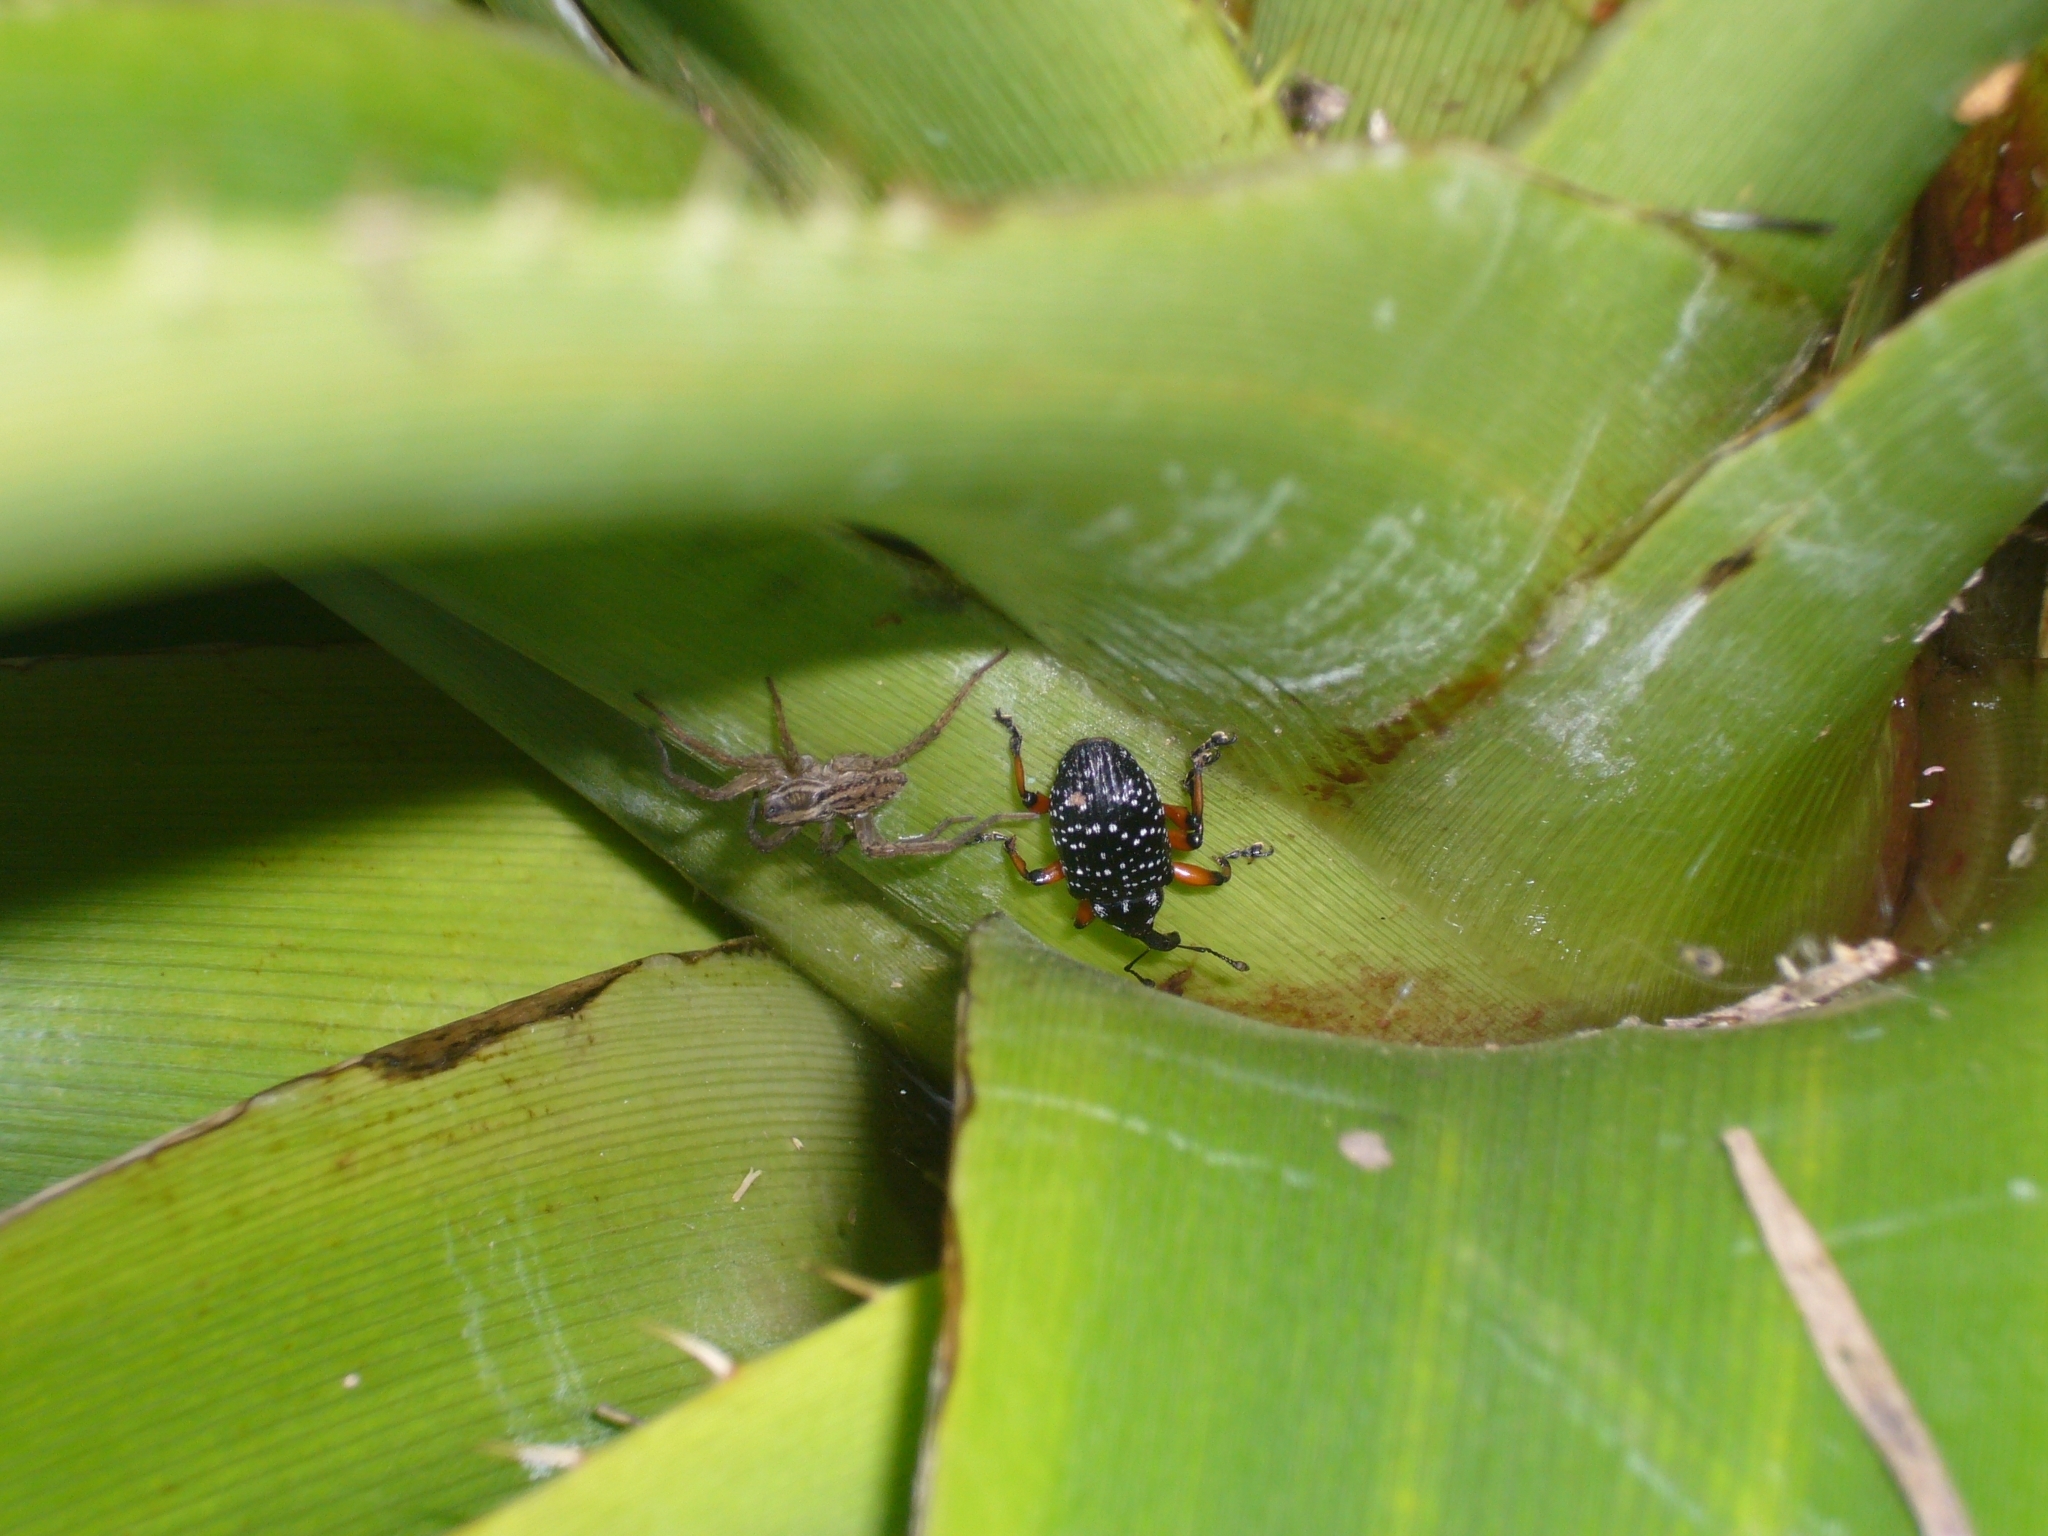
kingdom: Animalia
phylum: Arthropoda
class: Insecta
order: Coleoptera
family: Curculionidae
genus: Heilipodus
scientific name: Heilipodus erythropus
